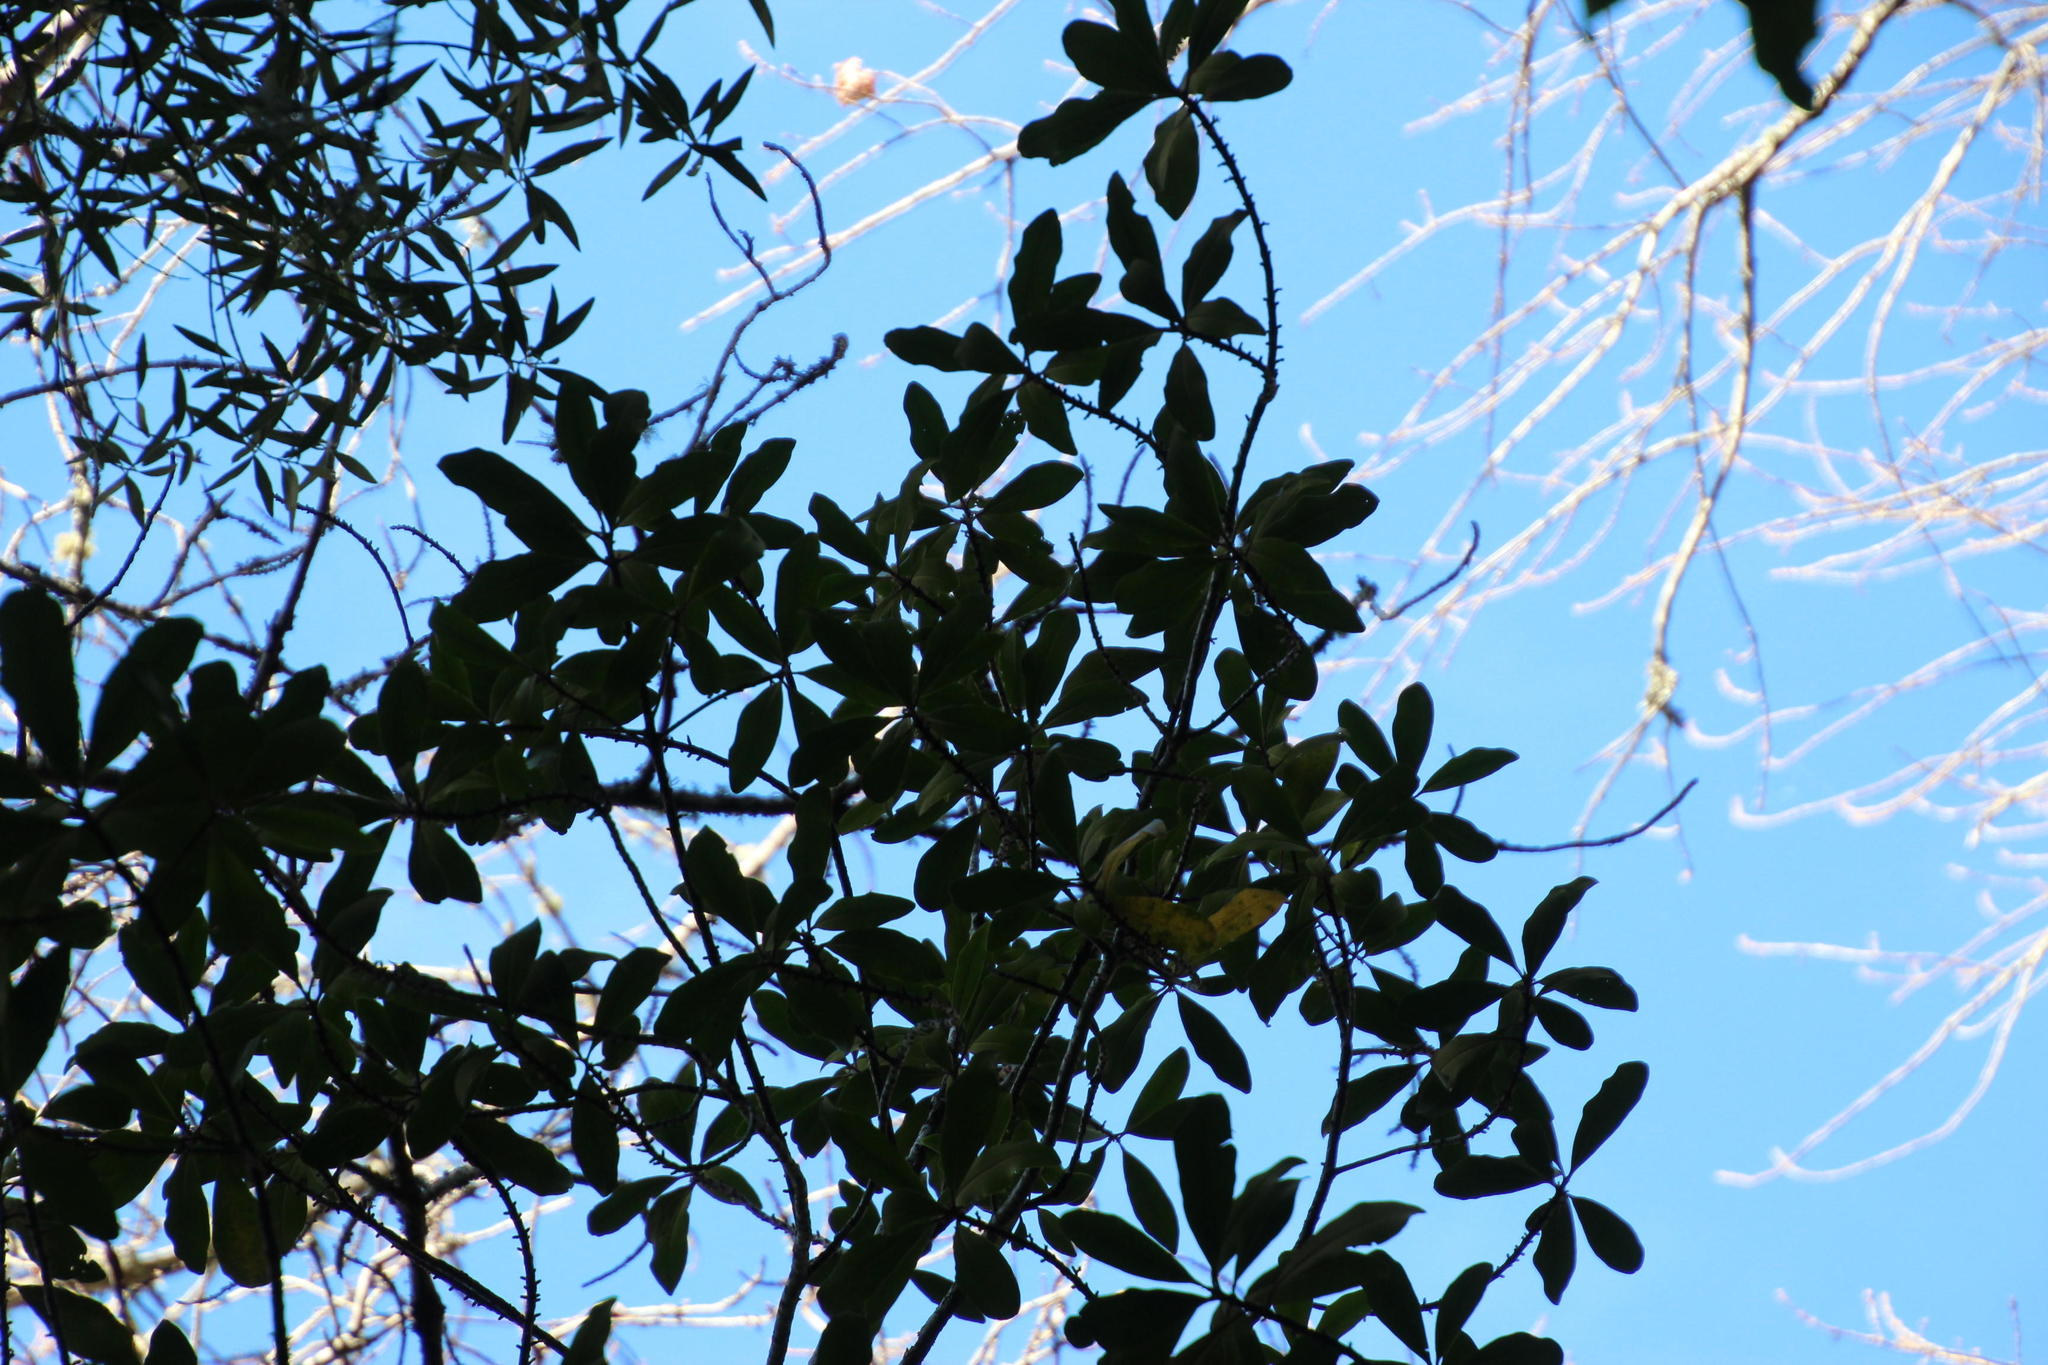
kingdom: Plantae
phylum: Tracheophyta
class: Magnoliopsida
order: Ericales
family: Primulaceae
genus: Myrsine
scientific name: Myrsine melanophloeos
